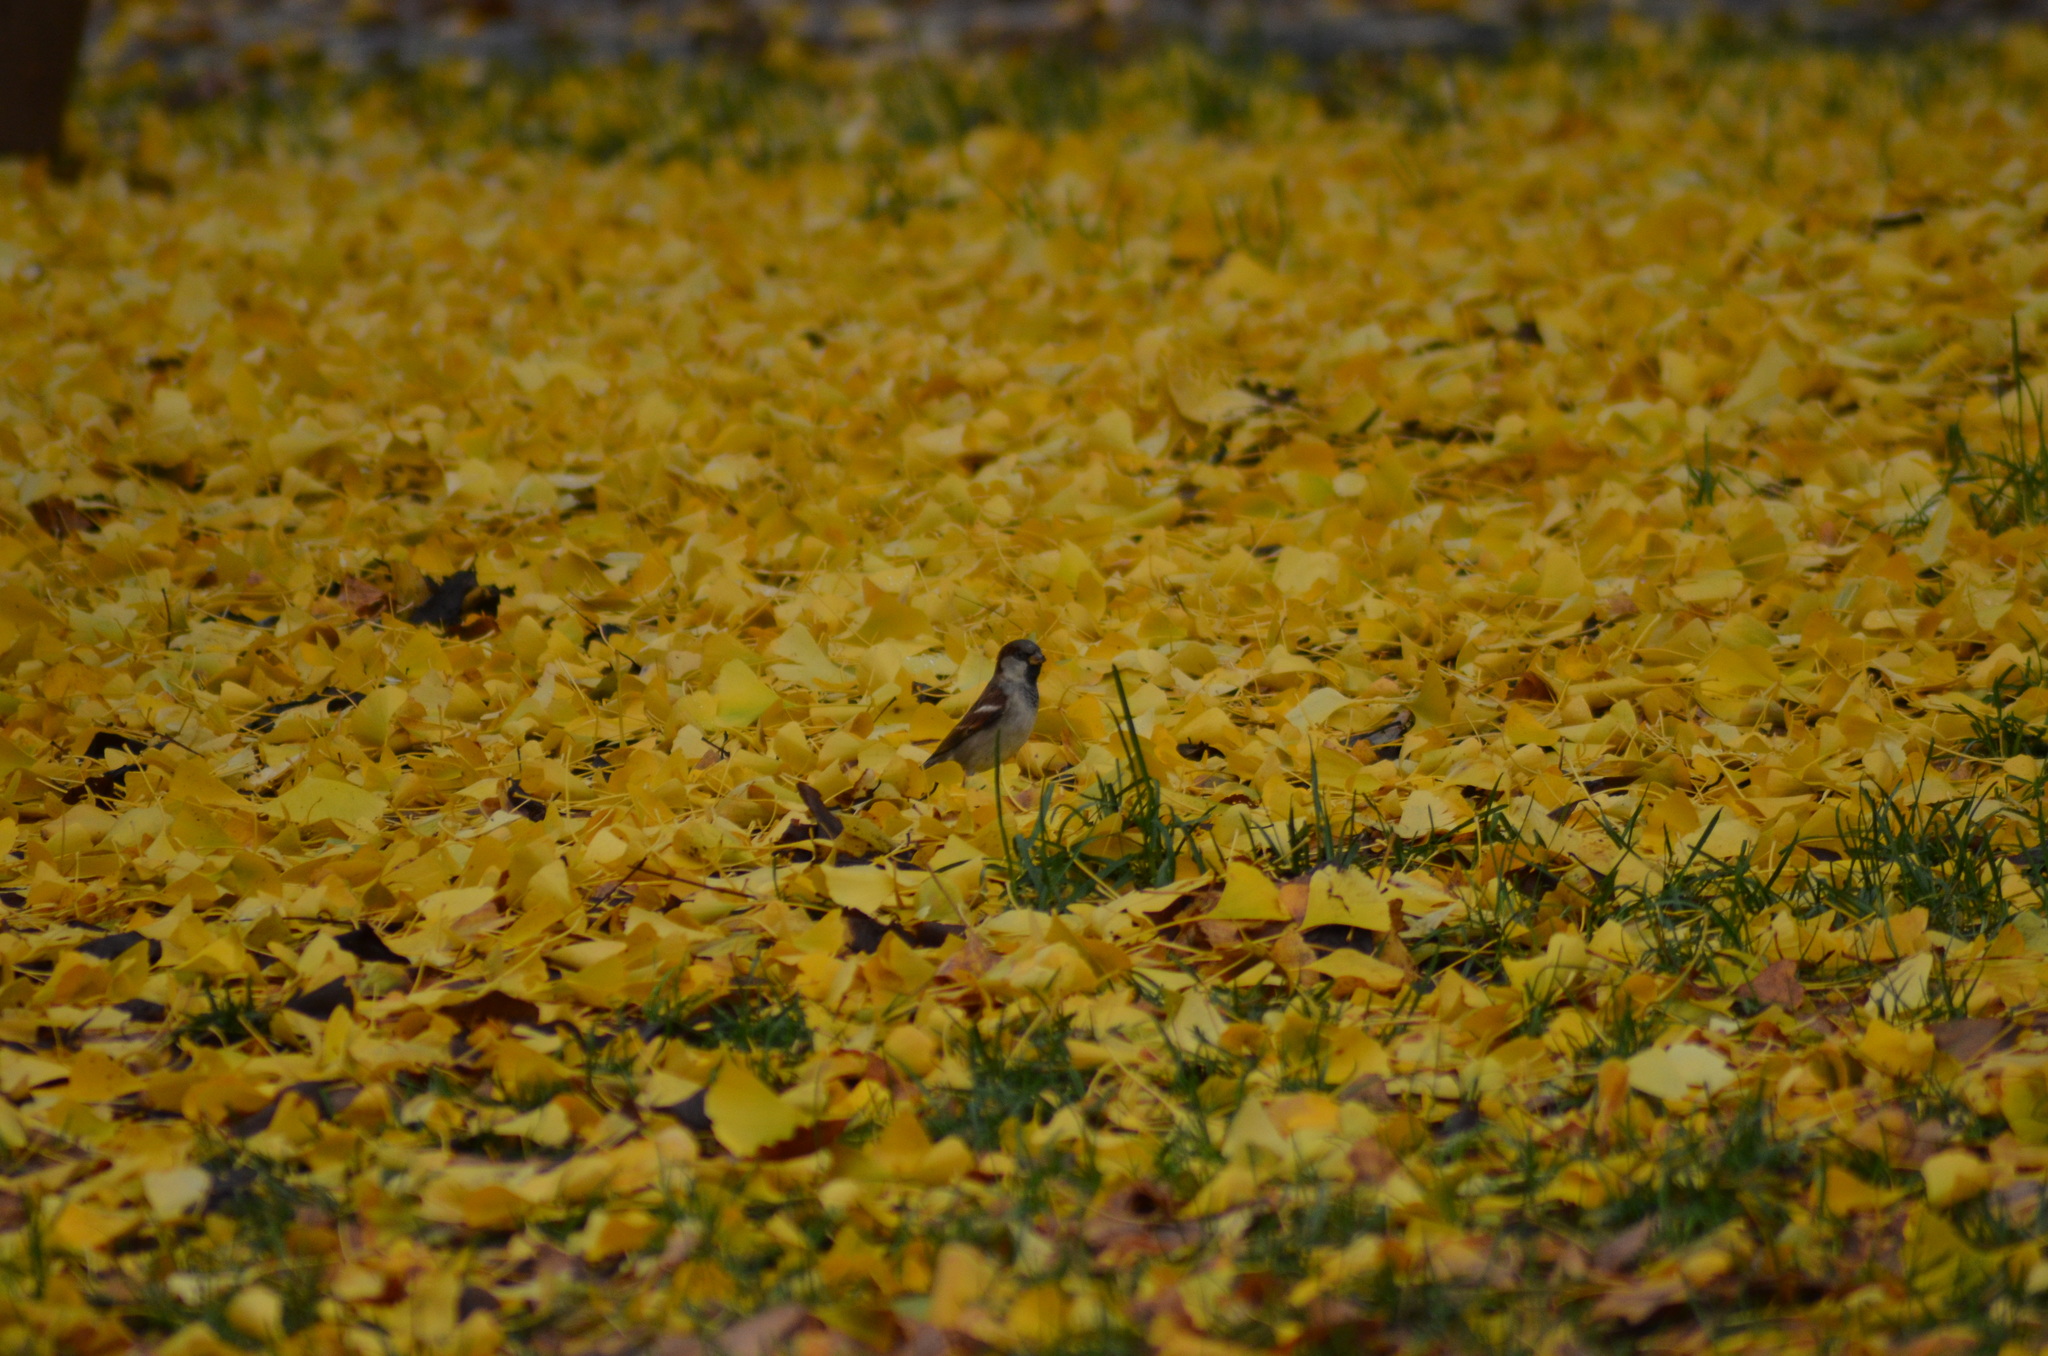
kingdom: Animalia
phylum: Chordata
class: Aves
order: Passeriformes
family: Passeridae
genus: Passer
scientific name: Passer domesticus
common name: House sparrow
